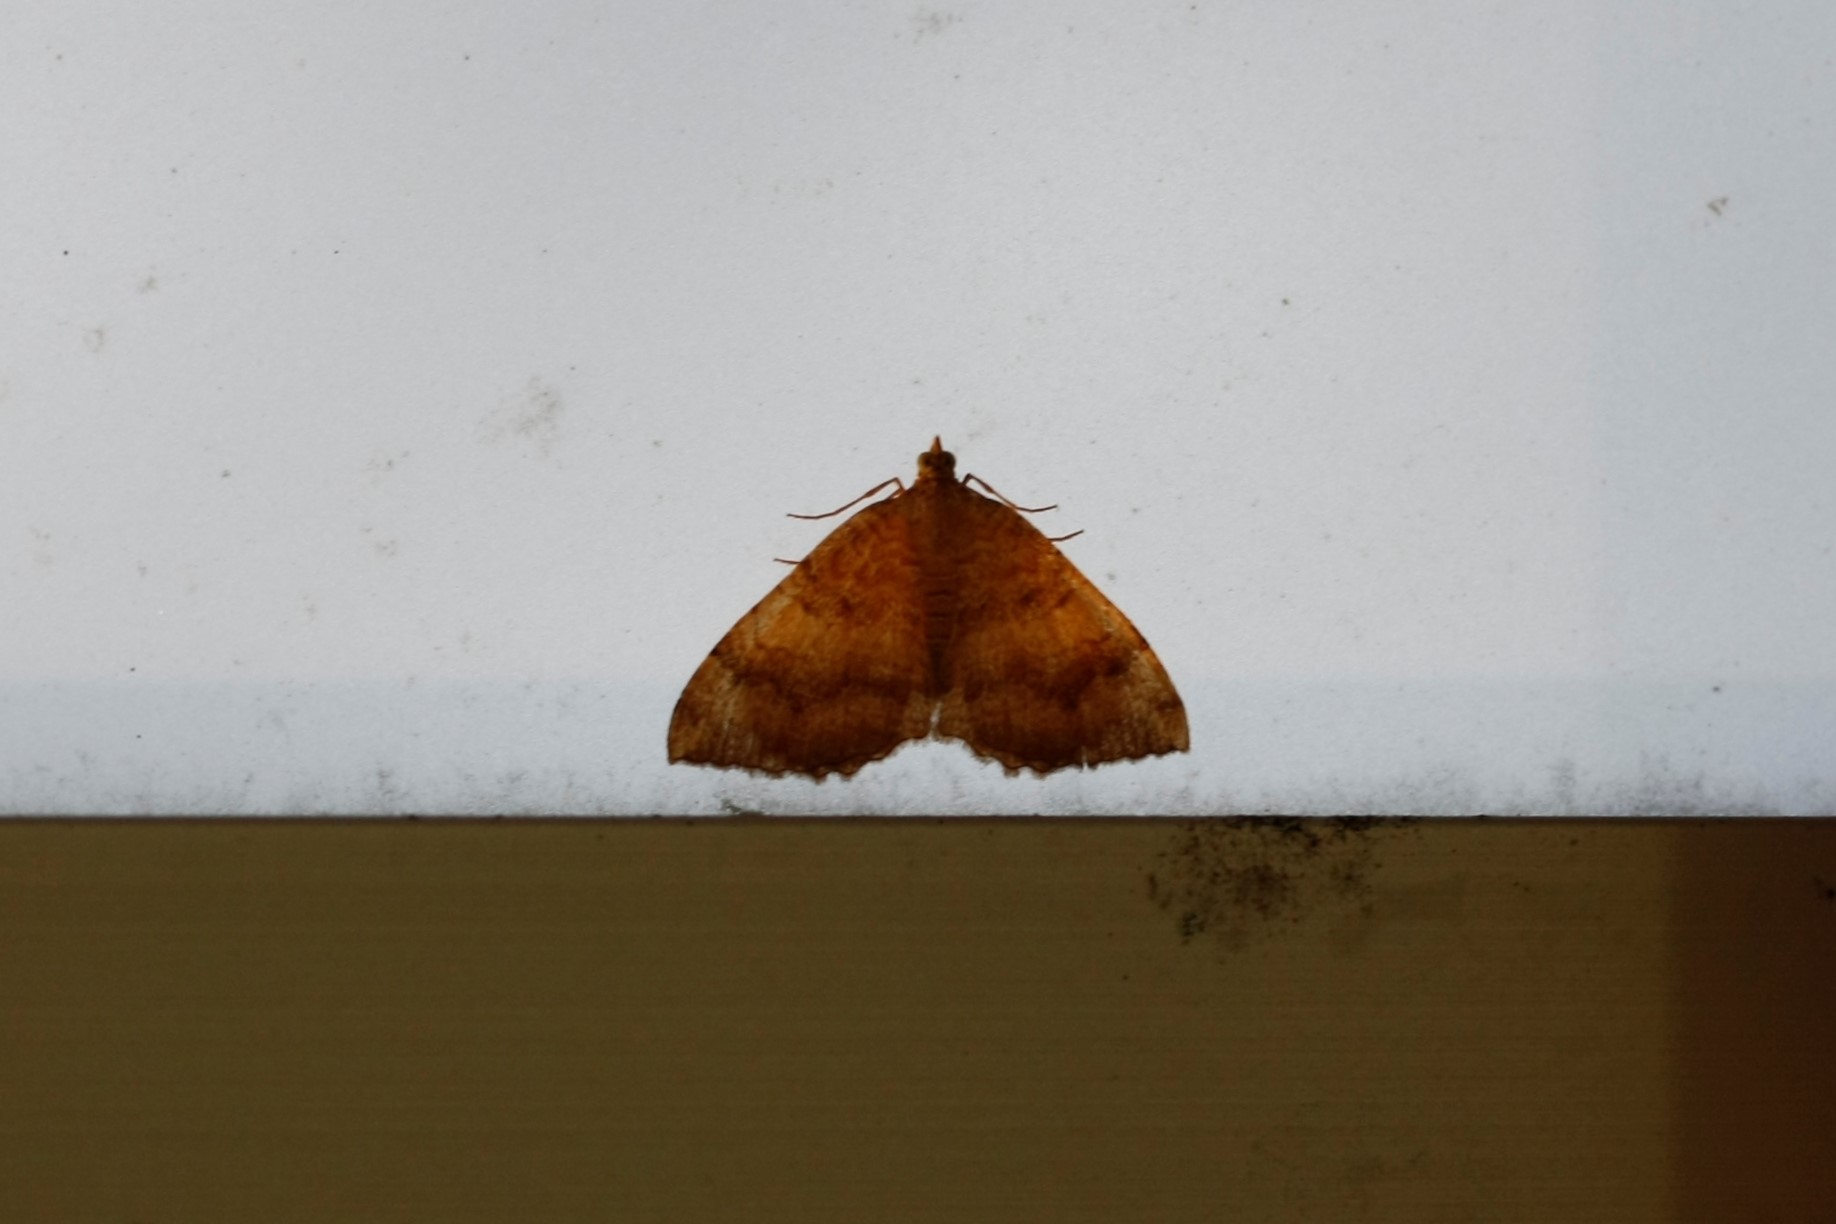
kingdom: Animalia
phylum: Arthropoda
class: Insecta
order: Lepidoptera
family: Geometridae
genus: Camptogramma
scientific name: Camptogramma bilineata
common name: Yellow shell
